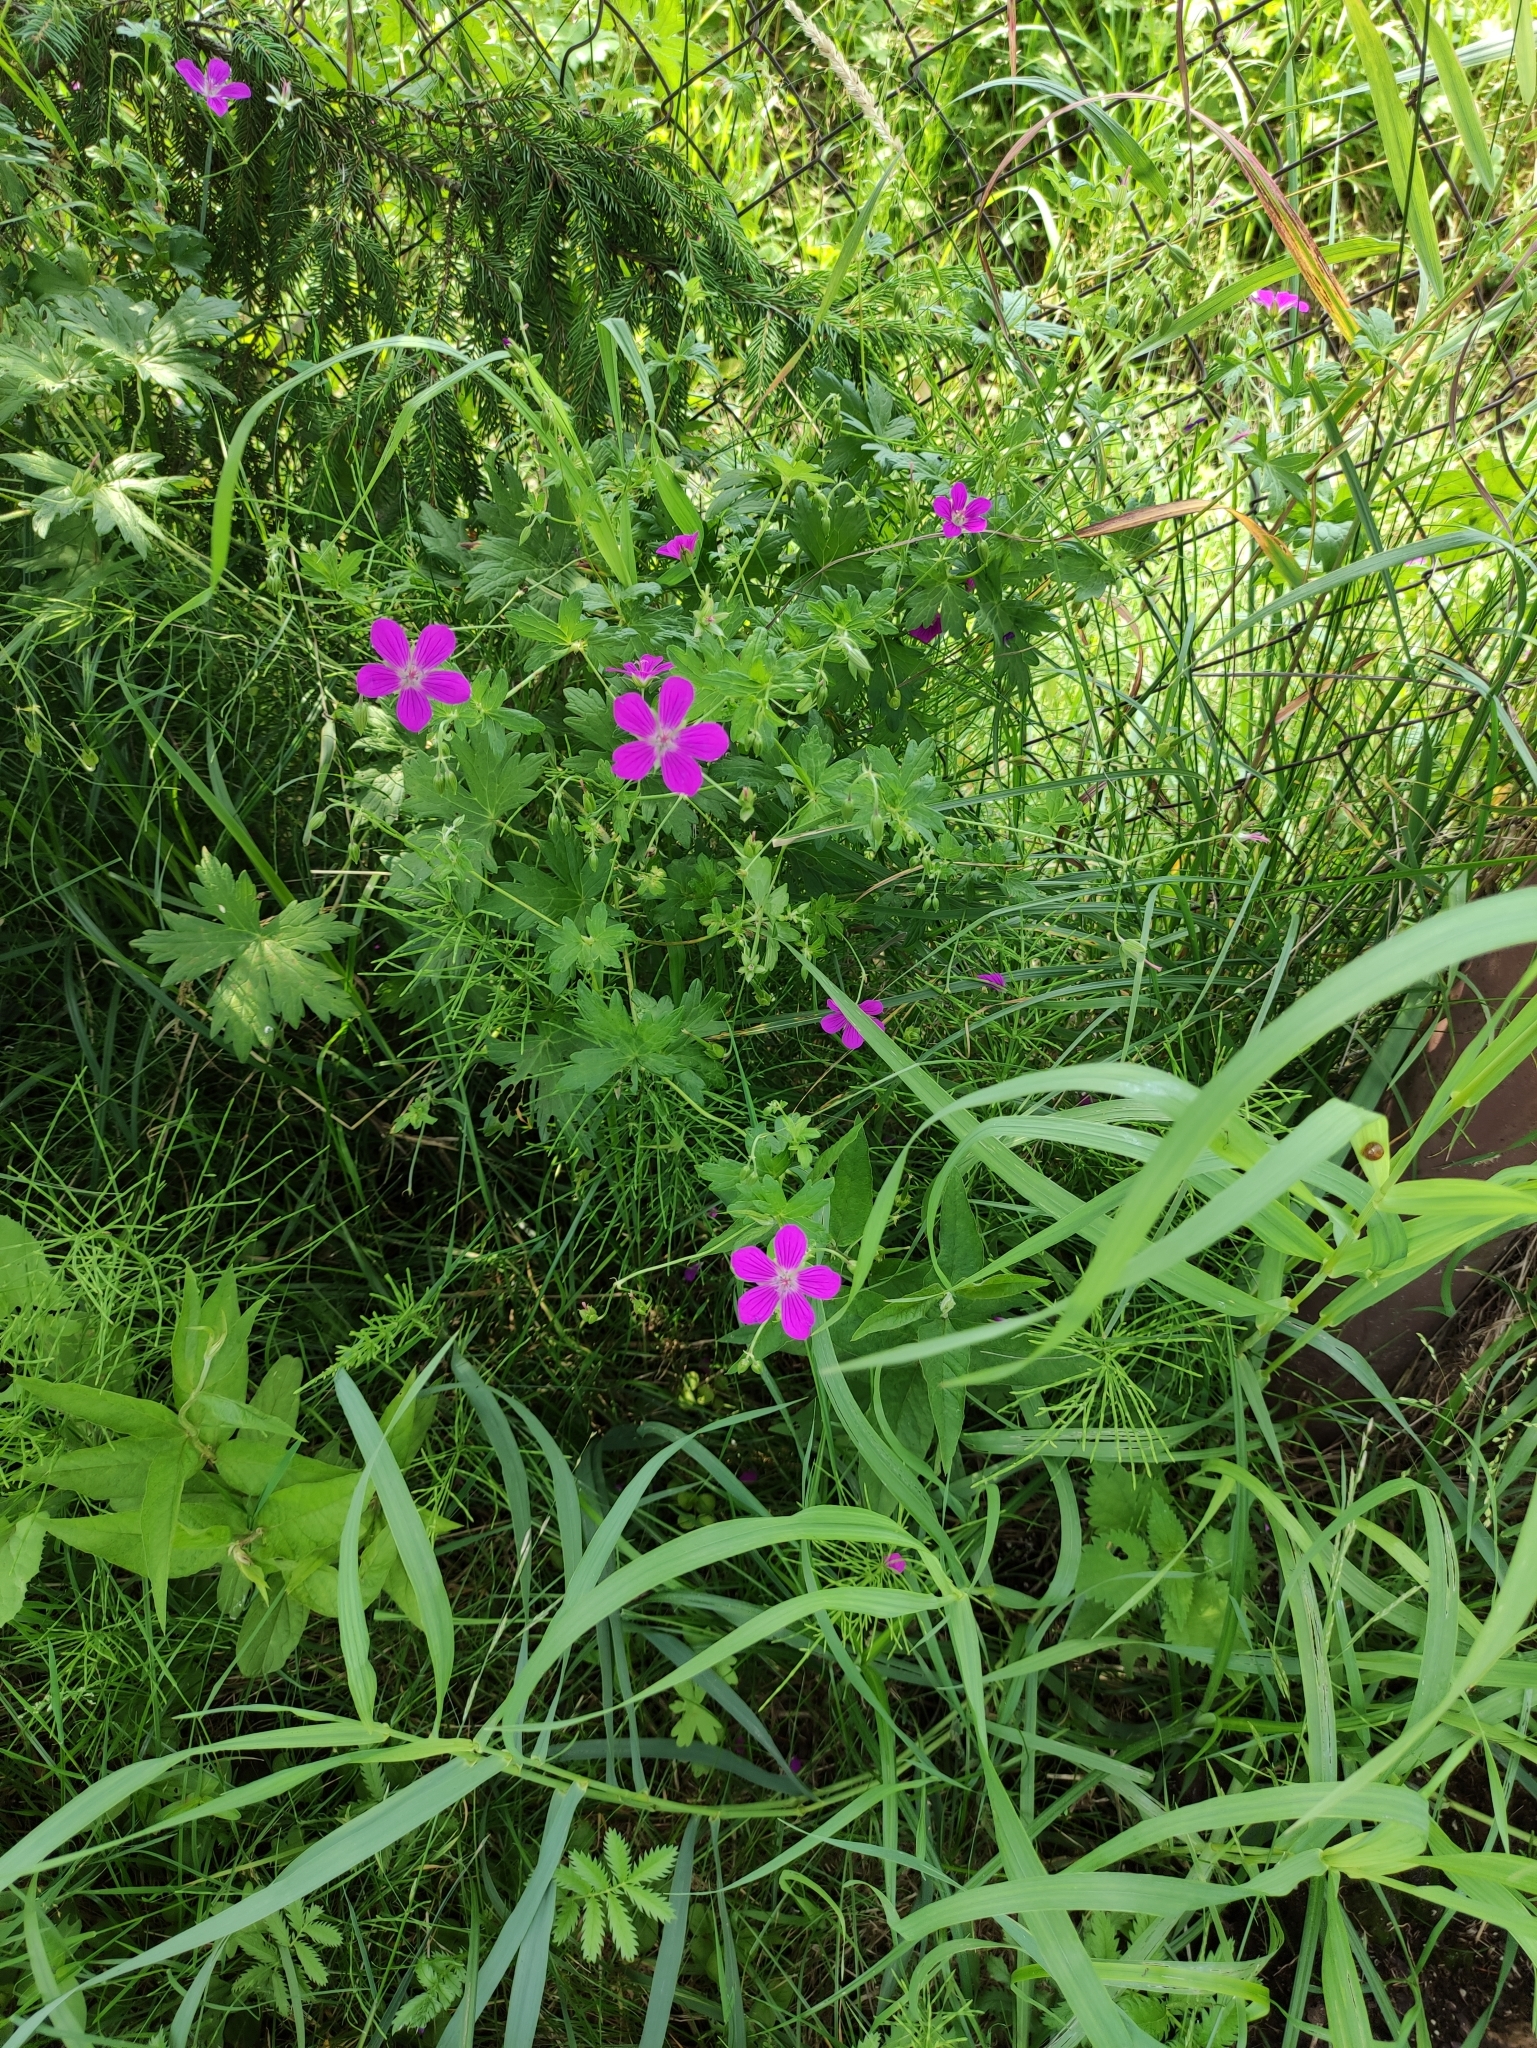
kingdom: Plantae
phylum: Tracheophyta
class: Magnoliopsida
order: Geraniales
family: Geraniaceae
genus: Geranium
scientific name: Geranium palustre
